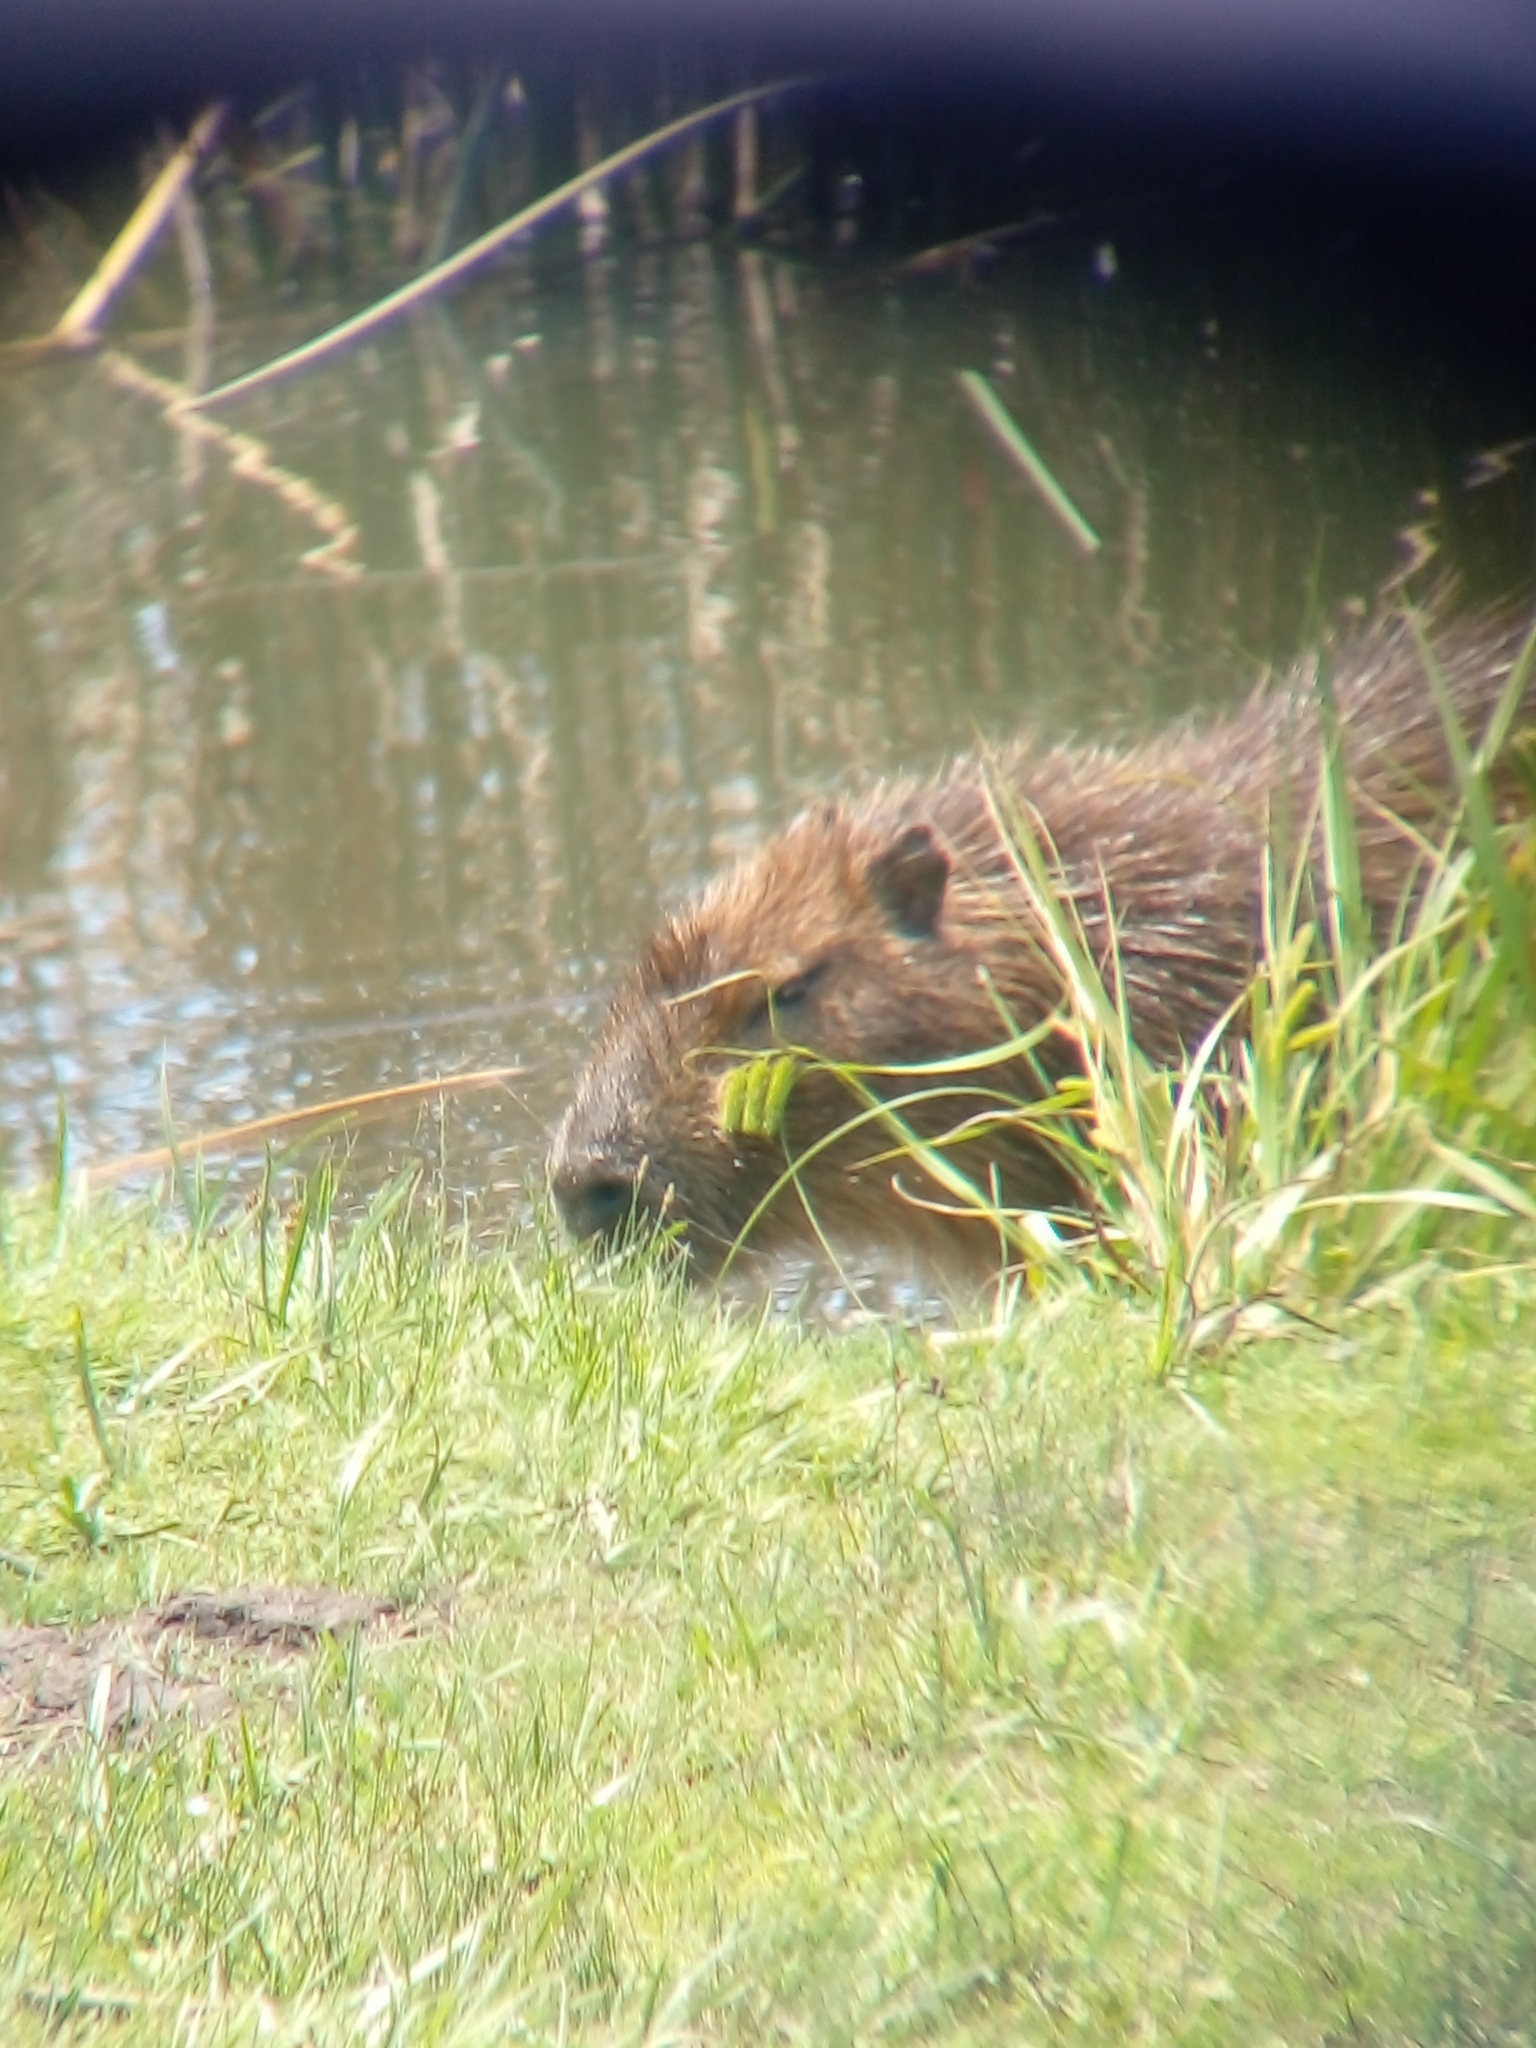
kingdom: Animalia
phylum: Chordata
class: Mammalia
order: Rodentia
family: Caviidae
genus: Hydrochoerus
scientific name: Hydrochoerus hydrochaeris
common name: Capybara
